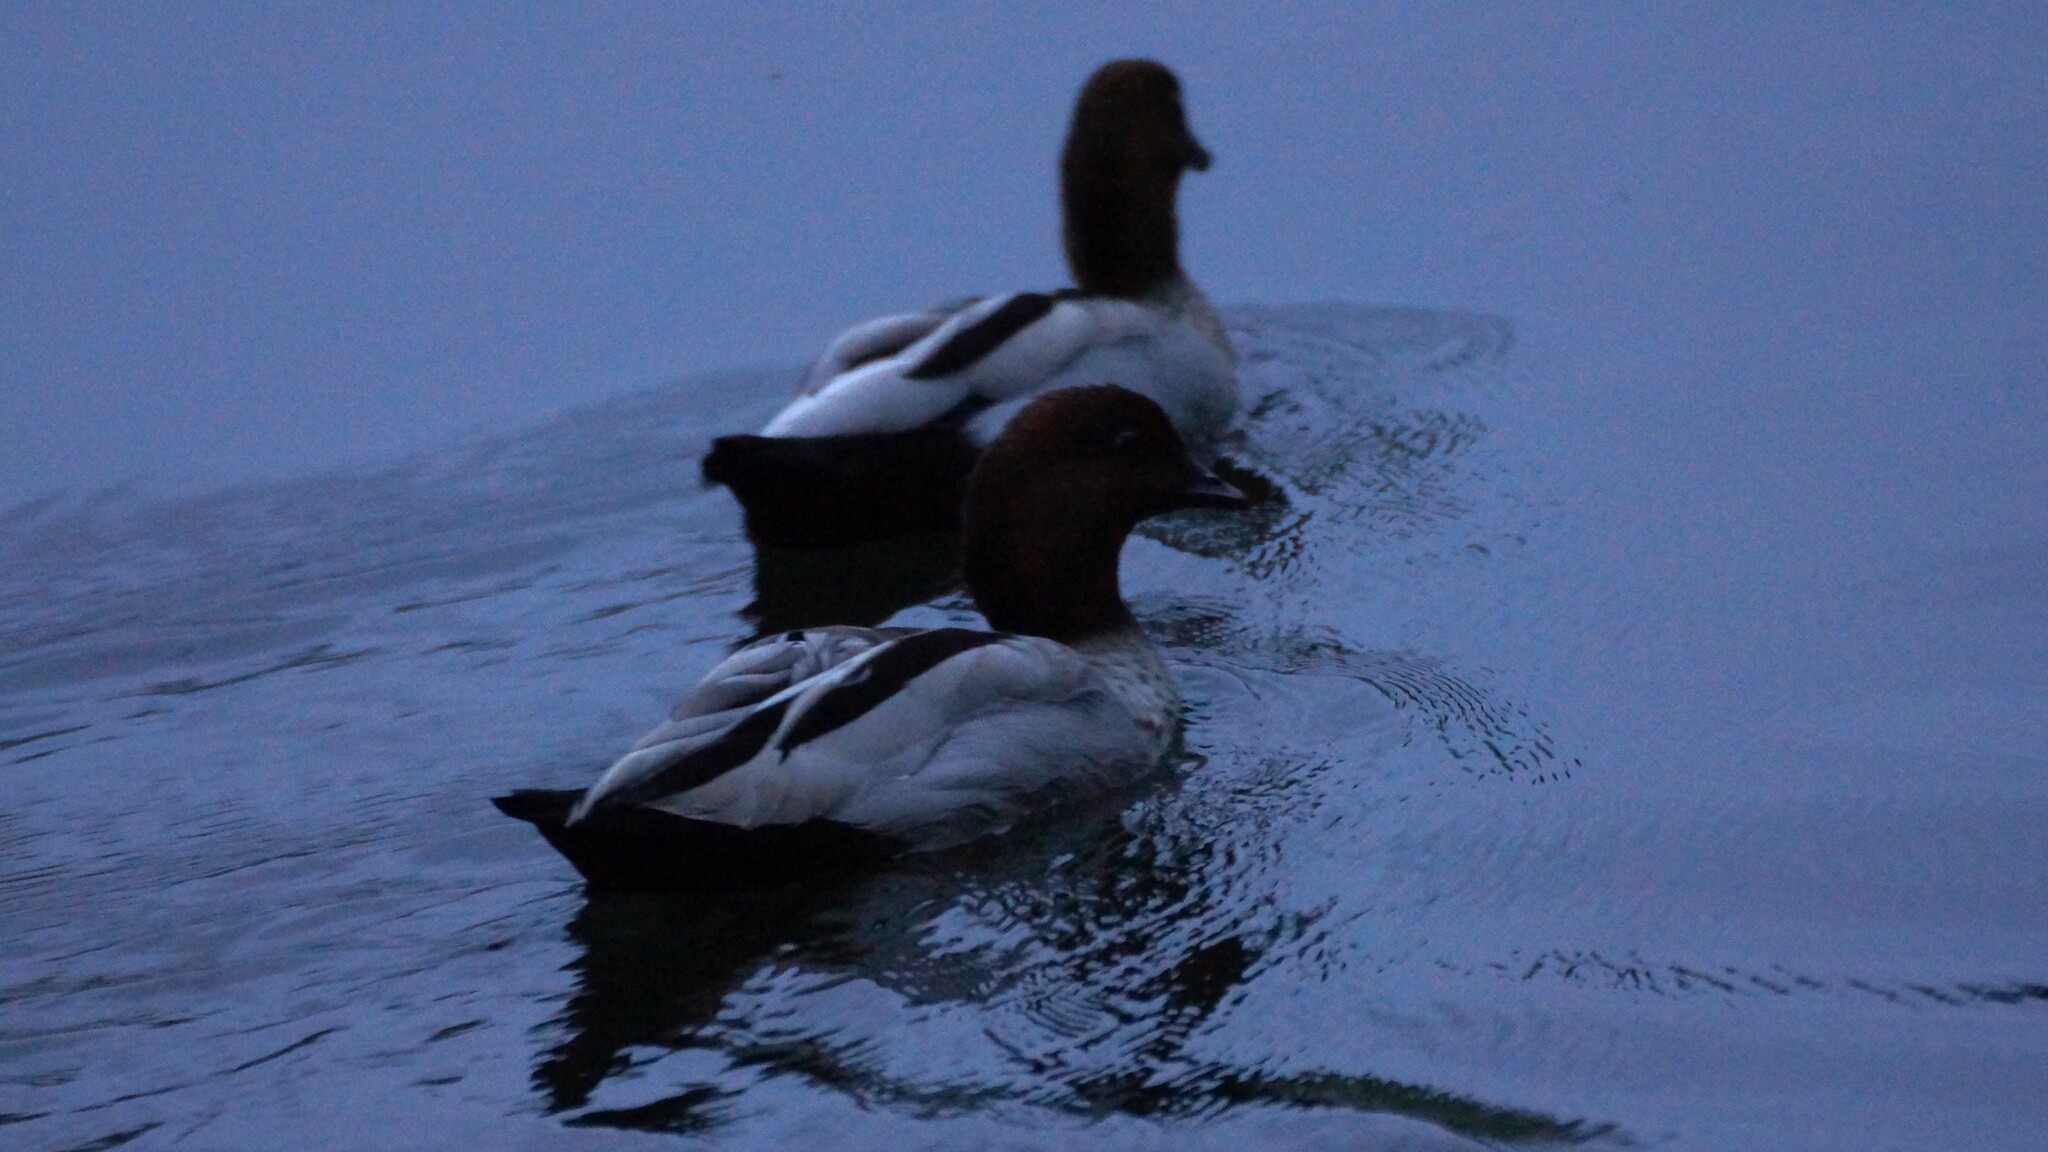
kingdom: Animalia
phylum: Chordata
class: Aves
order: Anseriformes
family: Anatidae
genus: Chenonetta
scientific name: Chenonetta jubata
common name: Maned duck
